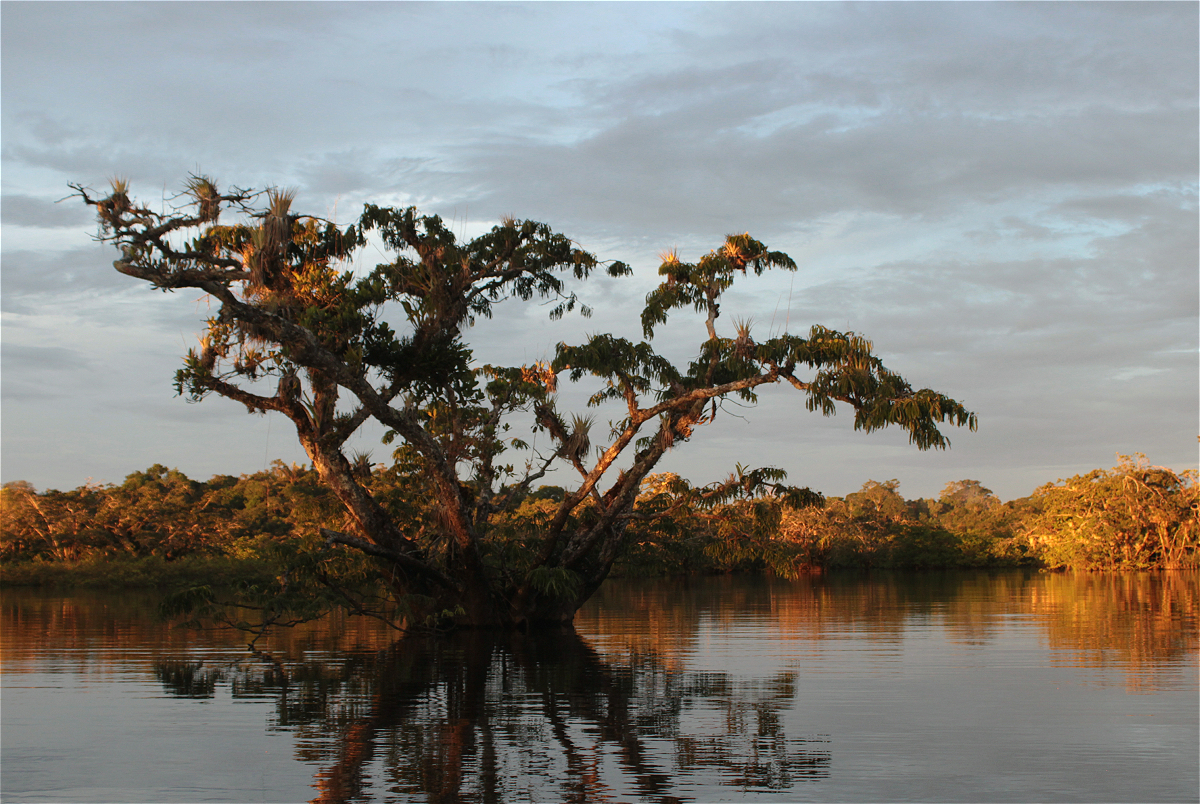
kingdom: Plantae
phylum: Tracheophyta
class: Magnoliopsida
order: Fabales
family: Fabaceae
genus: Macrolobium
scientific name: Macrolobium acaciifolium
